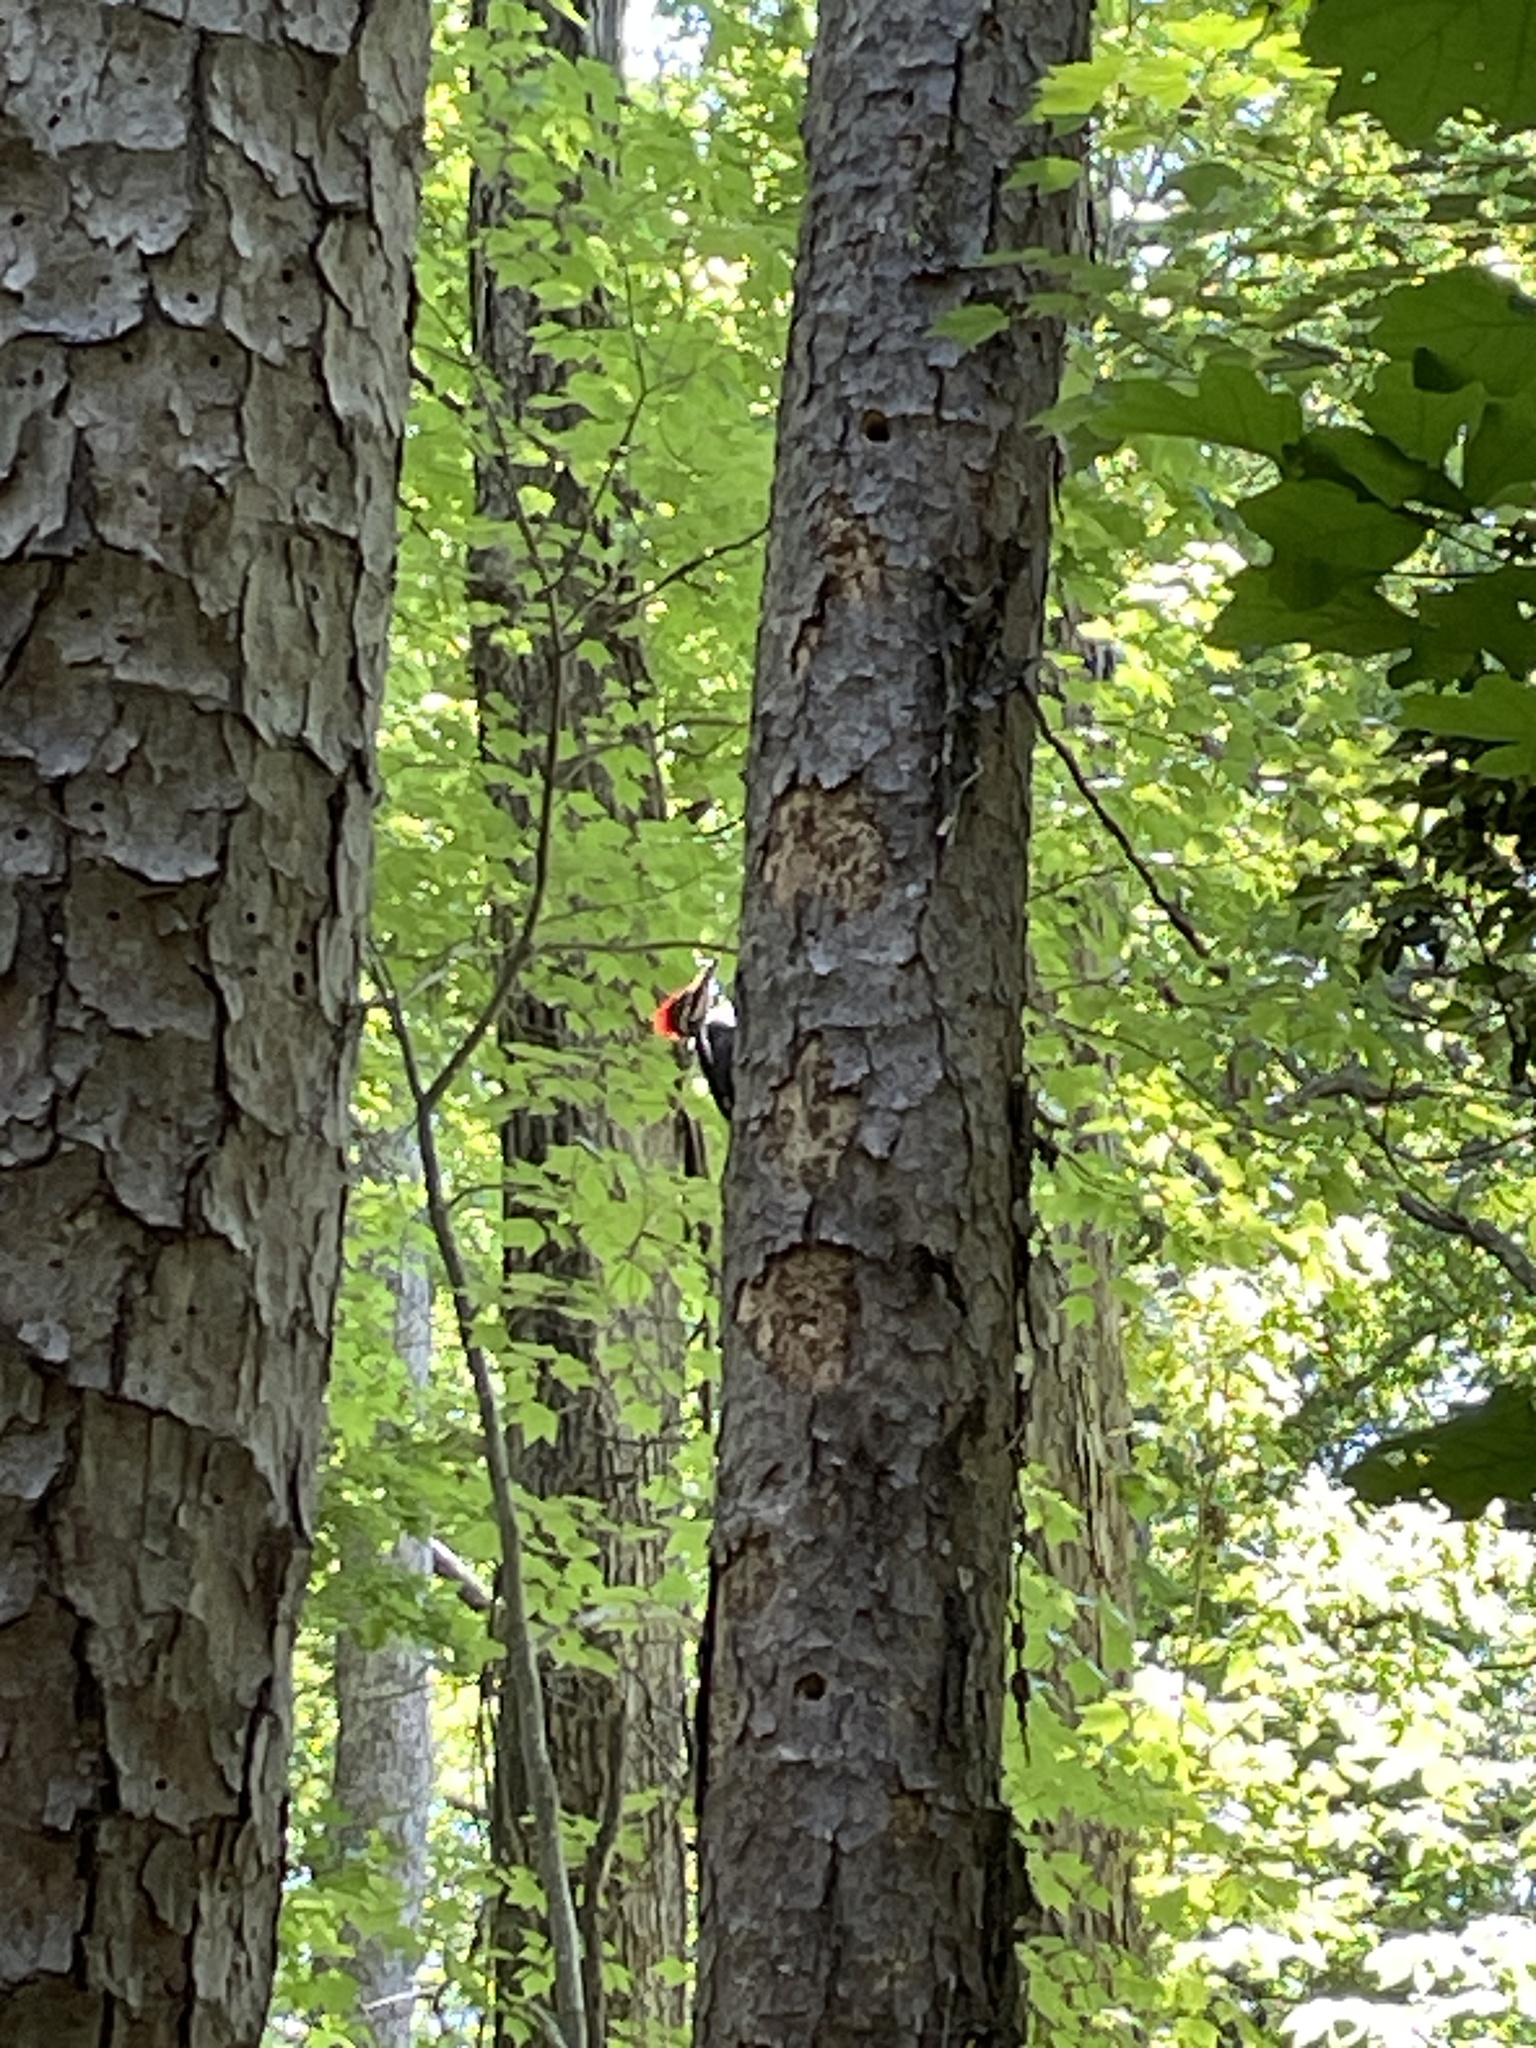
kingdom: Animalia
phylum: Chordata
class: Aves
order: Piciformes
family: Picidae
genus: Dryocopus
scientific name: Dryocopus pileatus
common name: Pileated woodpecker
